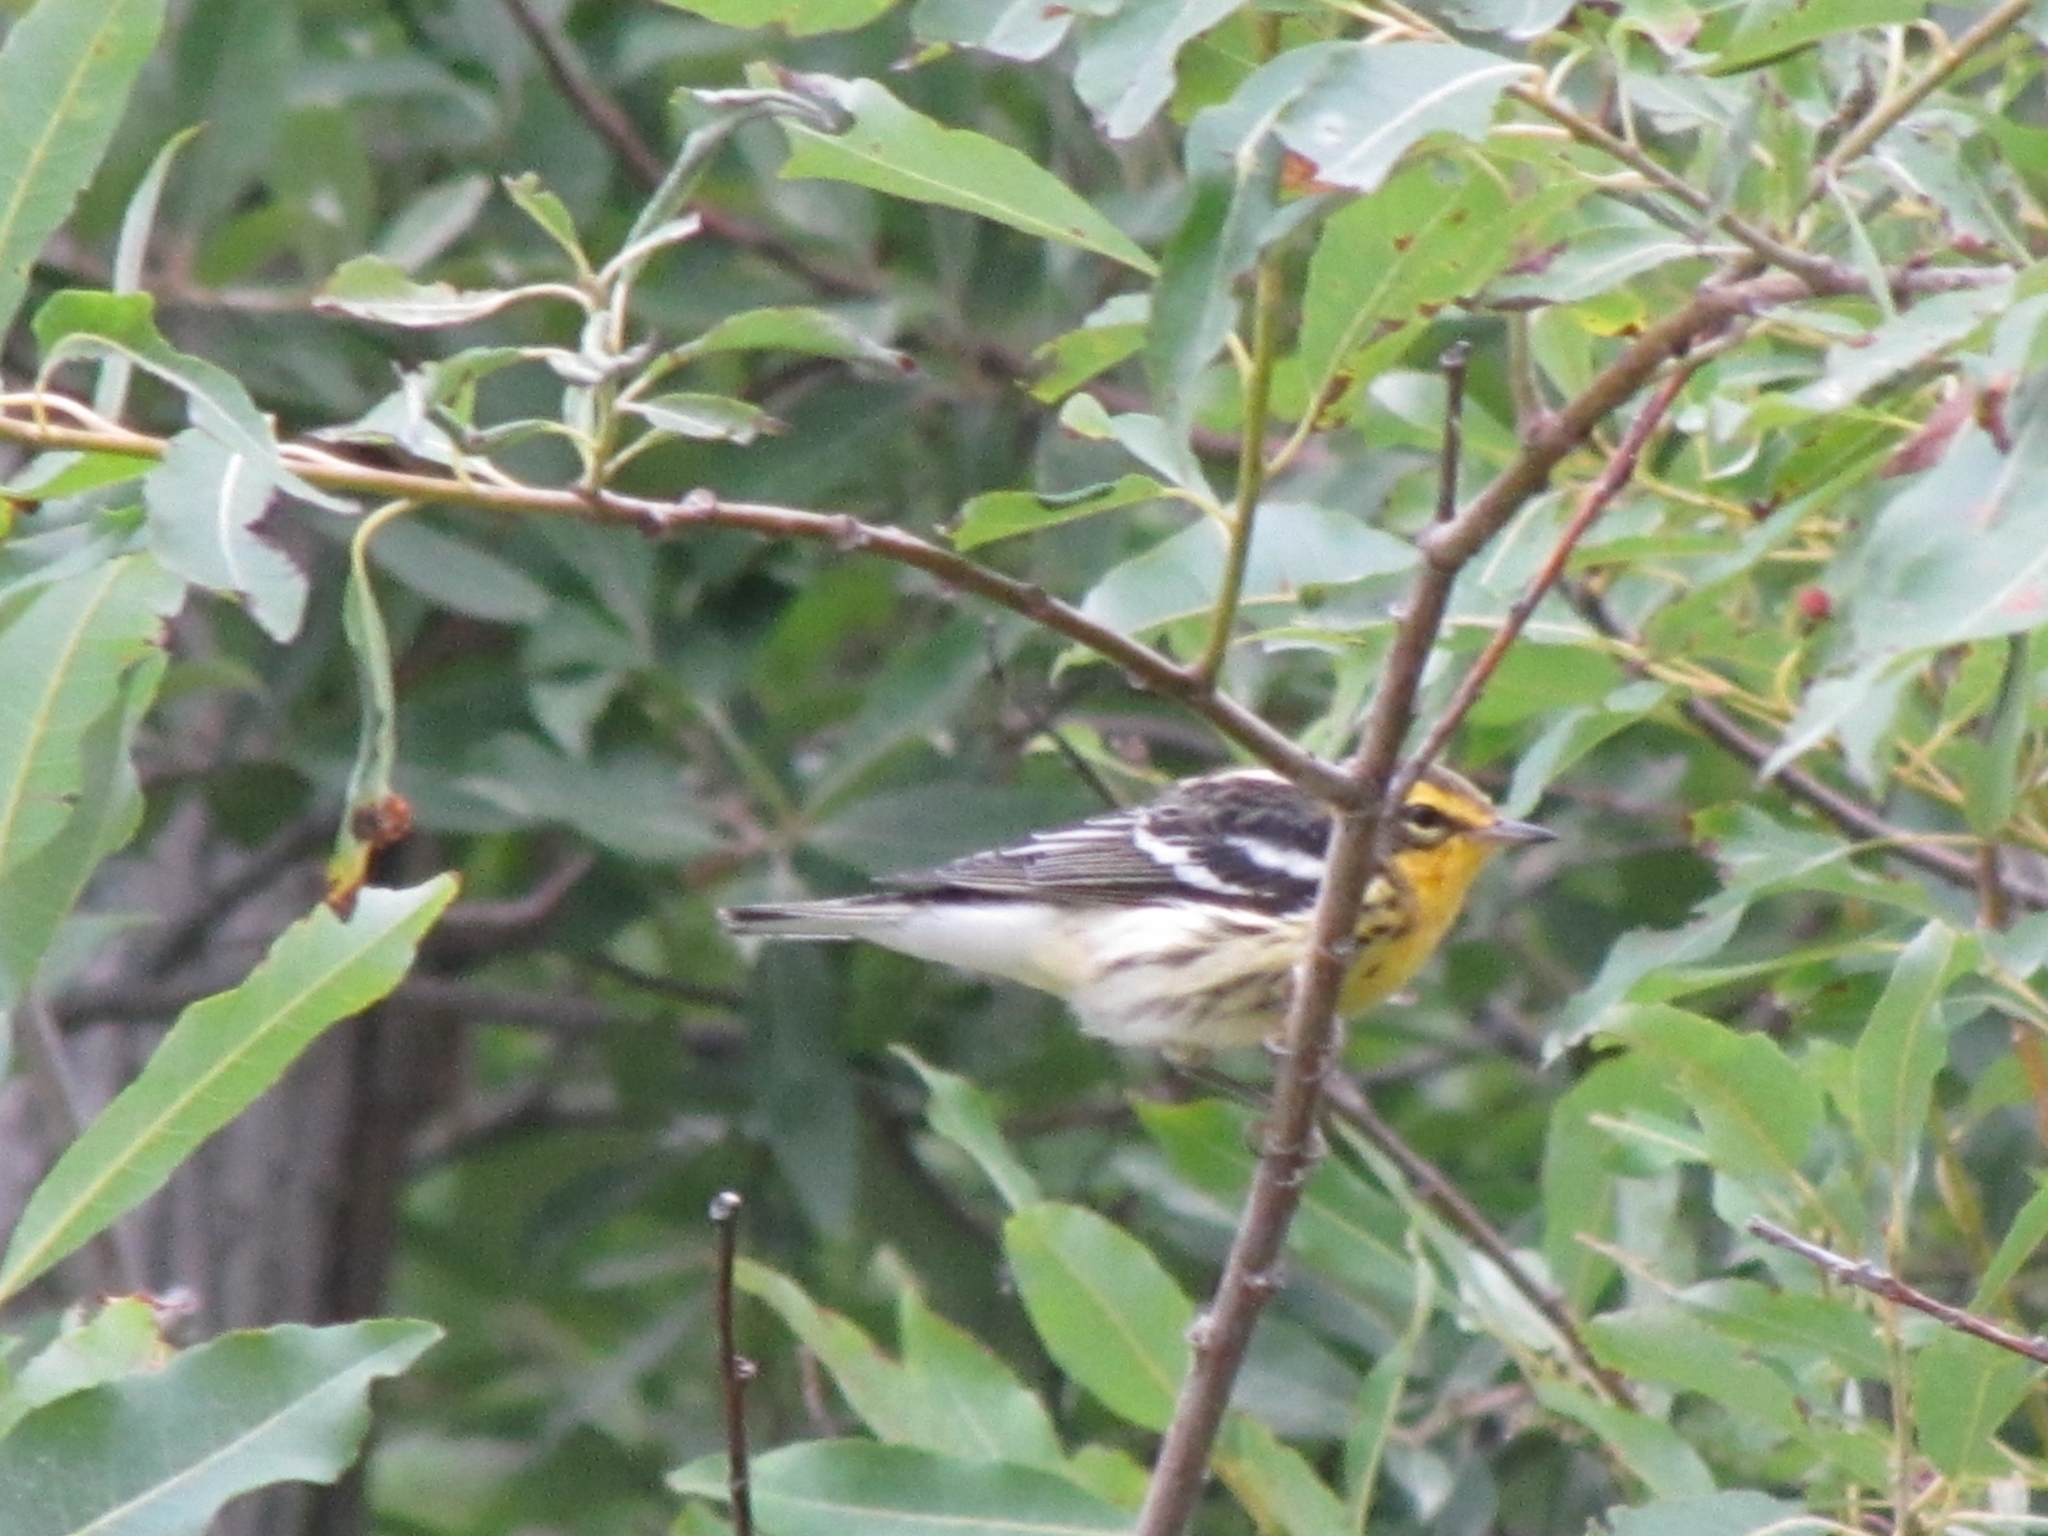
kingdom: Animalia
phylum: Chordata
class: Aves
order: Passeriformes
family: Parulidae
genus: Setophaga
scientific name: Setophaga fusca
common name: Blackburnian warbler
